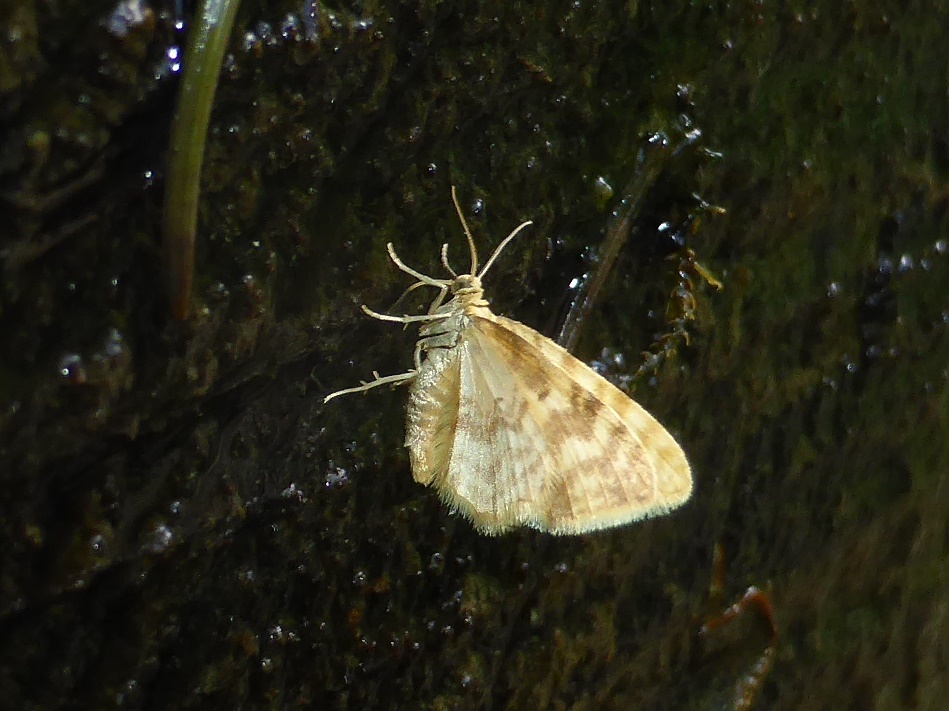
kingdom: Animalia
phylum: Arthropoda
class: Insecta
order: Lepidoptera
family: Geometridae
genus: Hydrelia
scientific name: Hydrelia flammeolaria
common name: Small yellow wave
